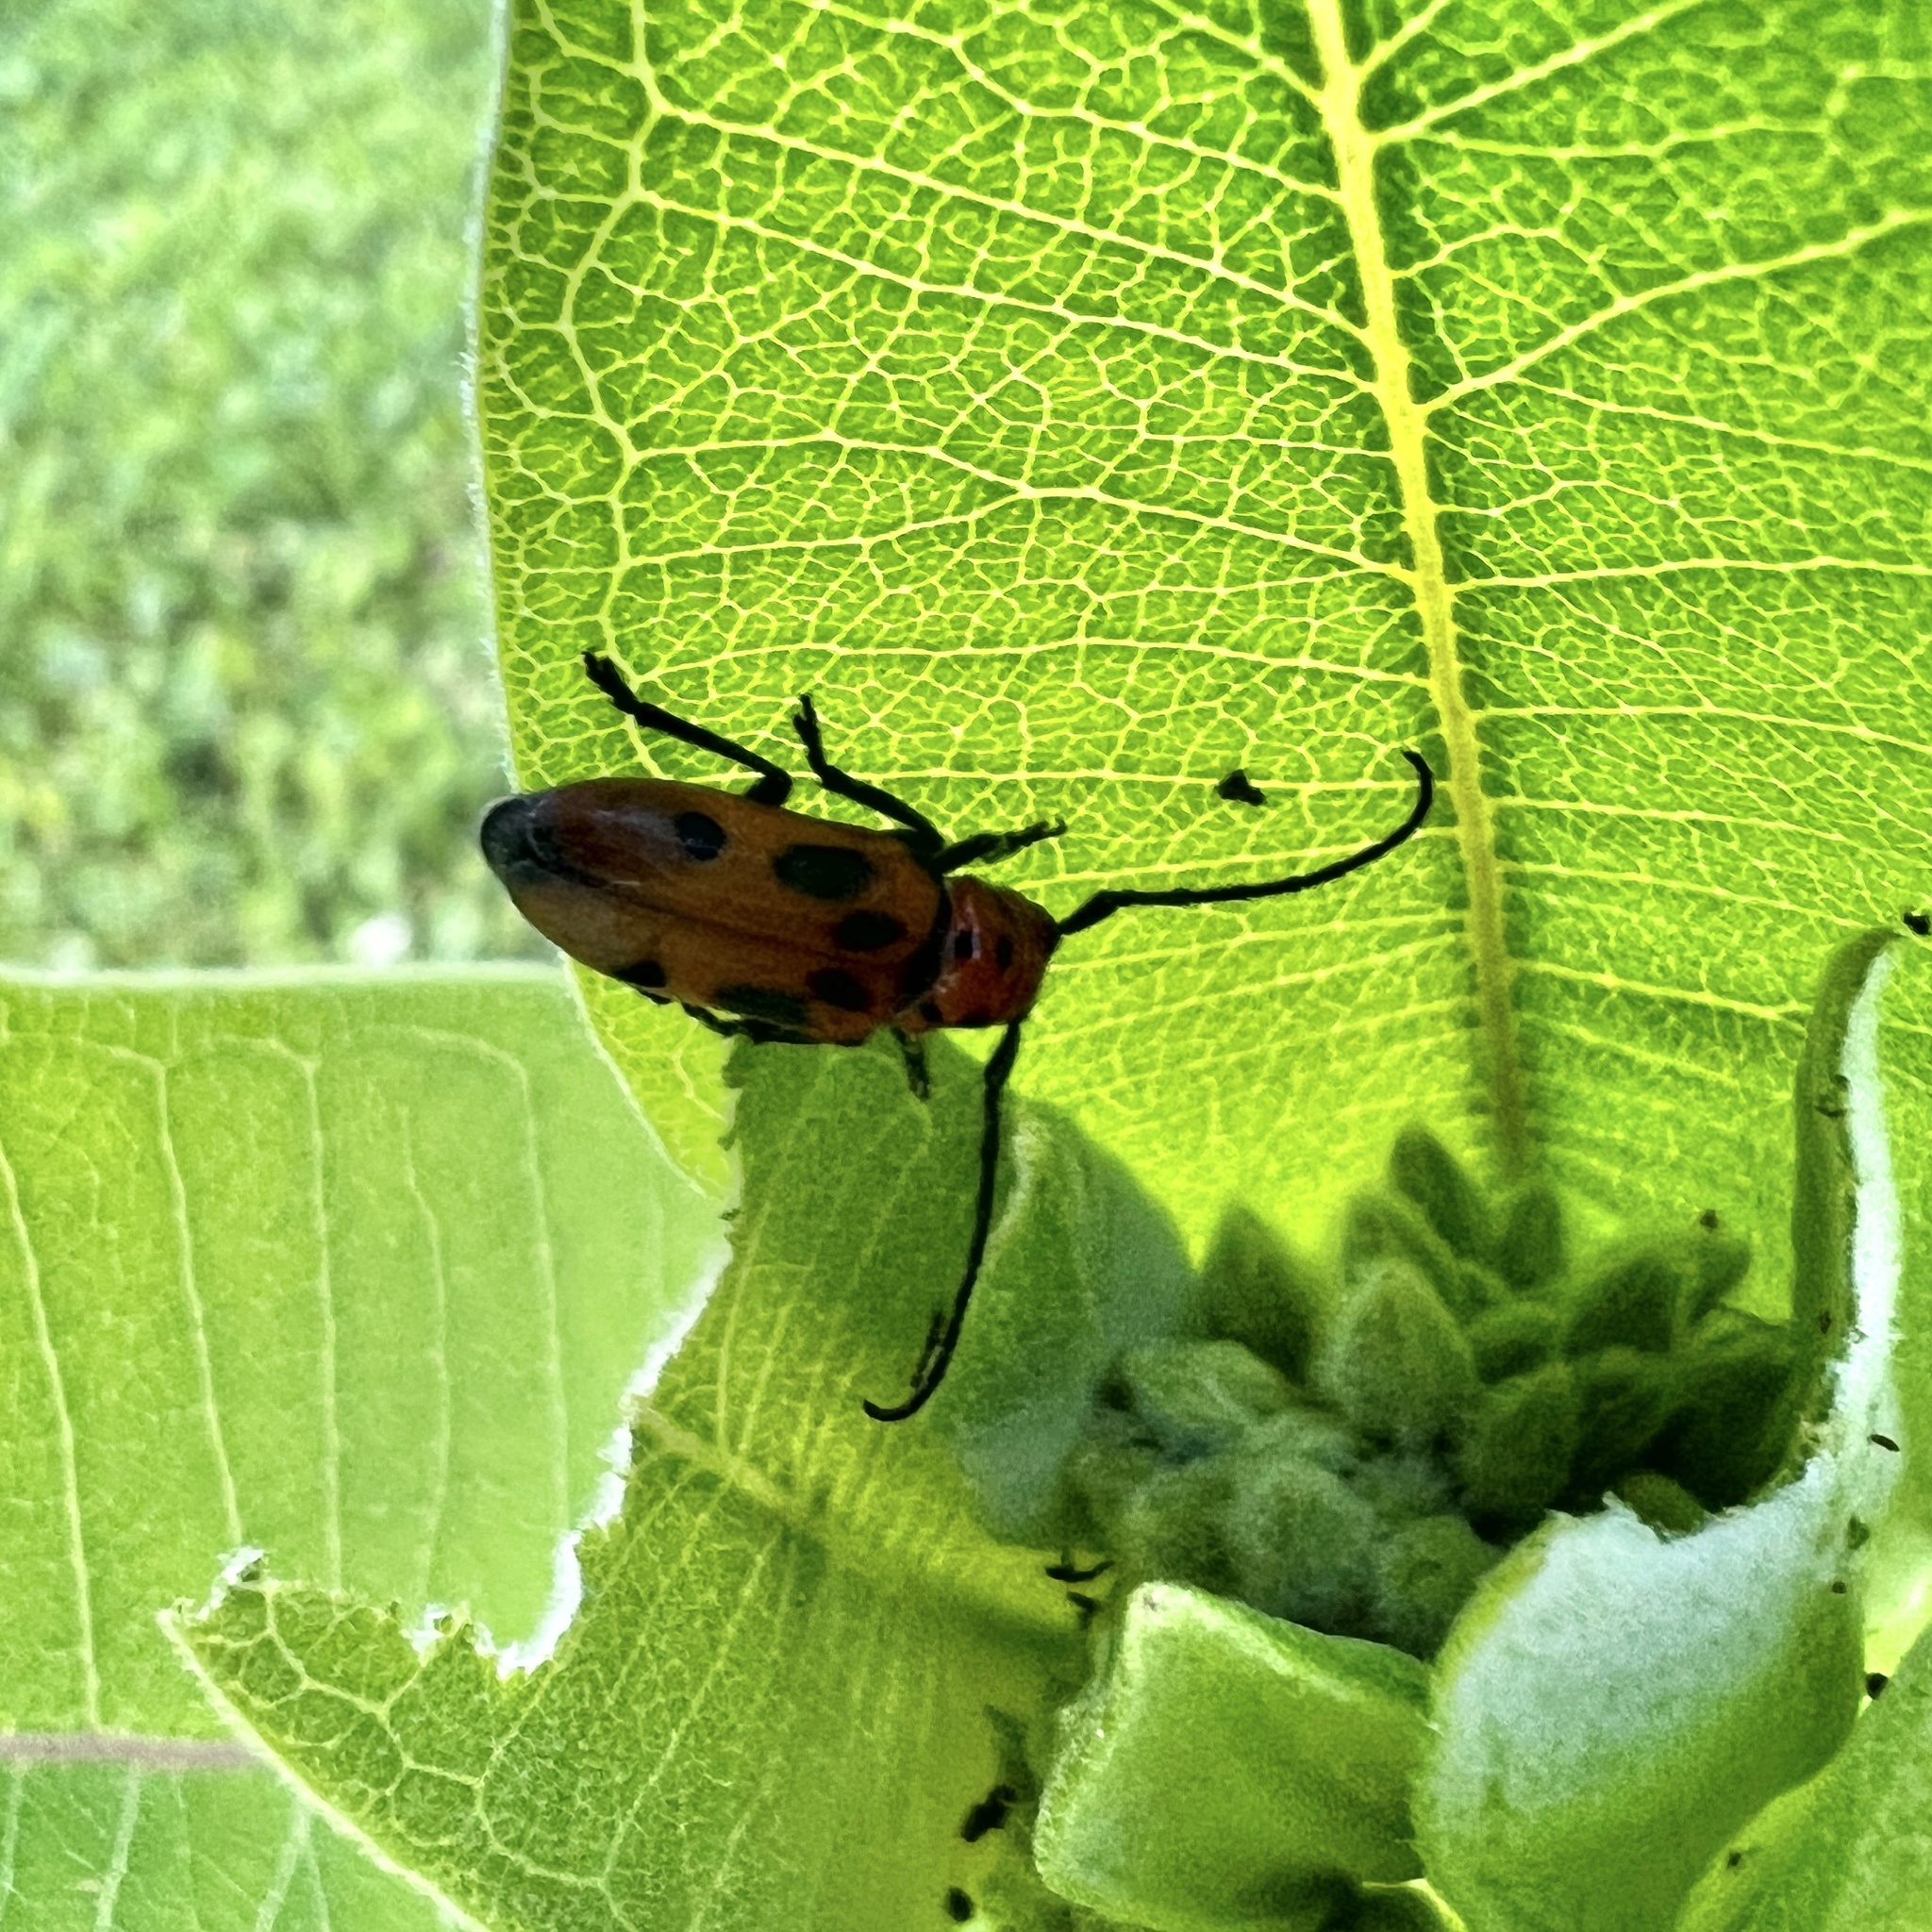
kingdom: Animalia
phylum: Arthropoda
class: Insecta
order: Coleoptera
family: Cerambycidae
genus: Tetraopes
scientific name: Tetraopes tetrophthalmus
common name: Red milkweed beetle
